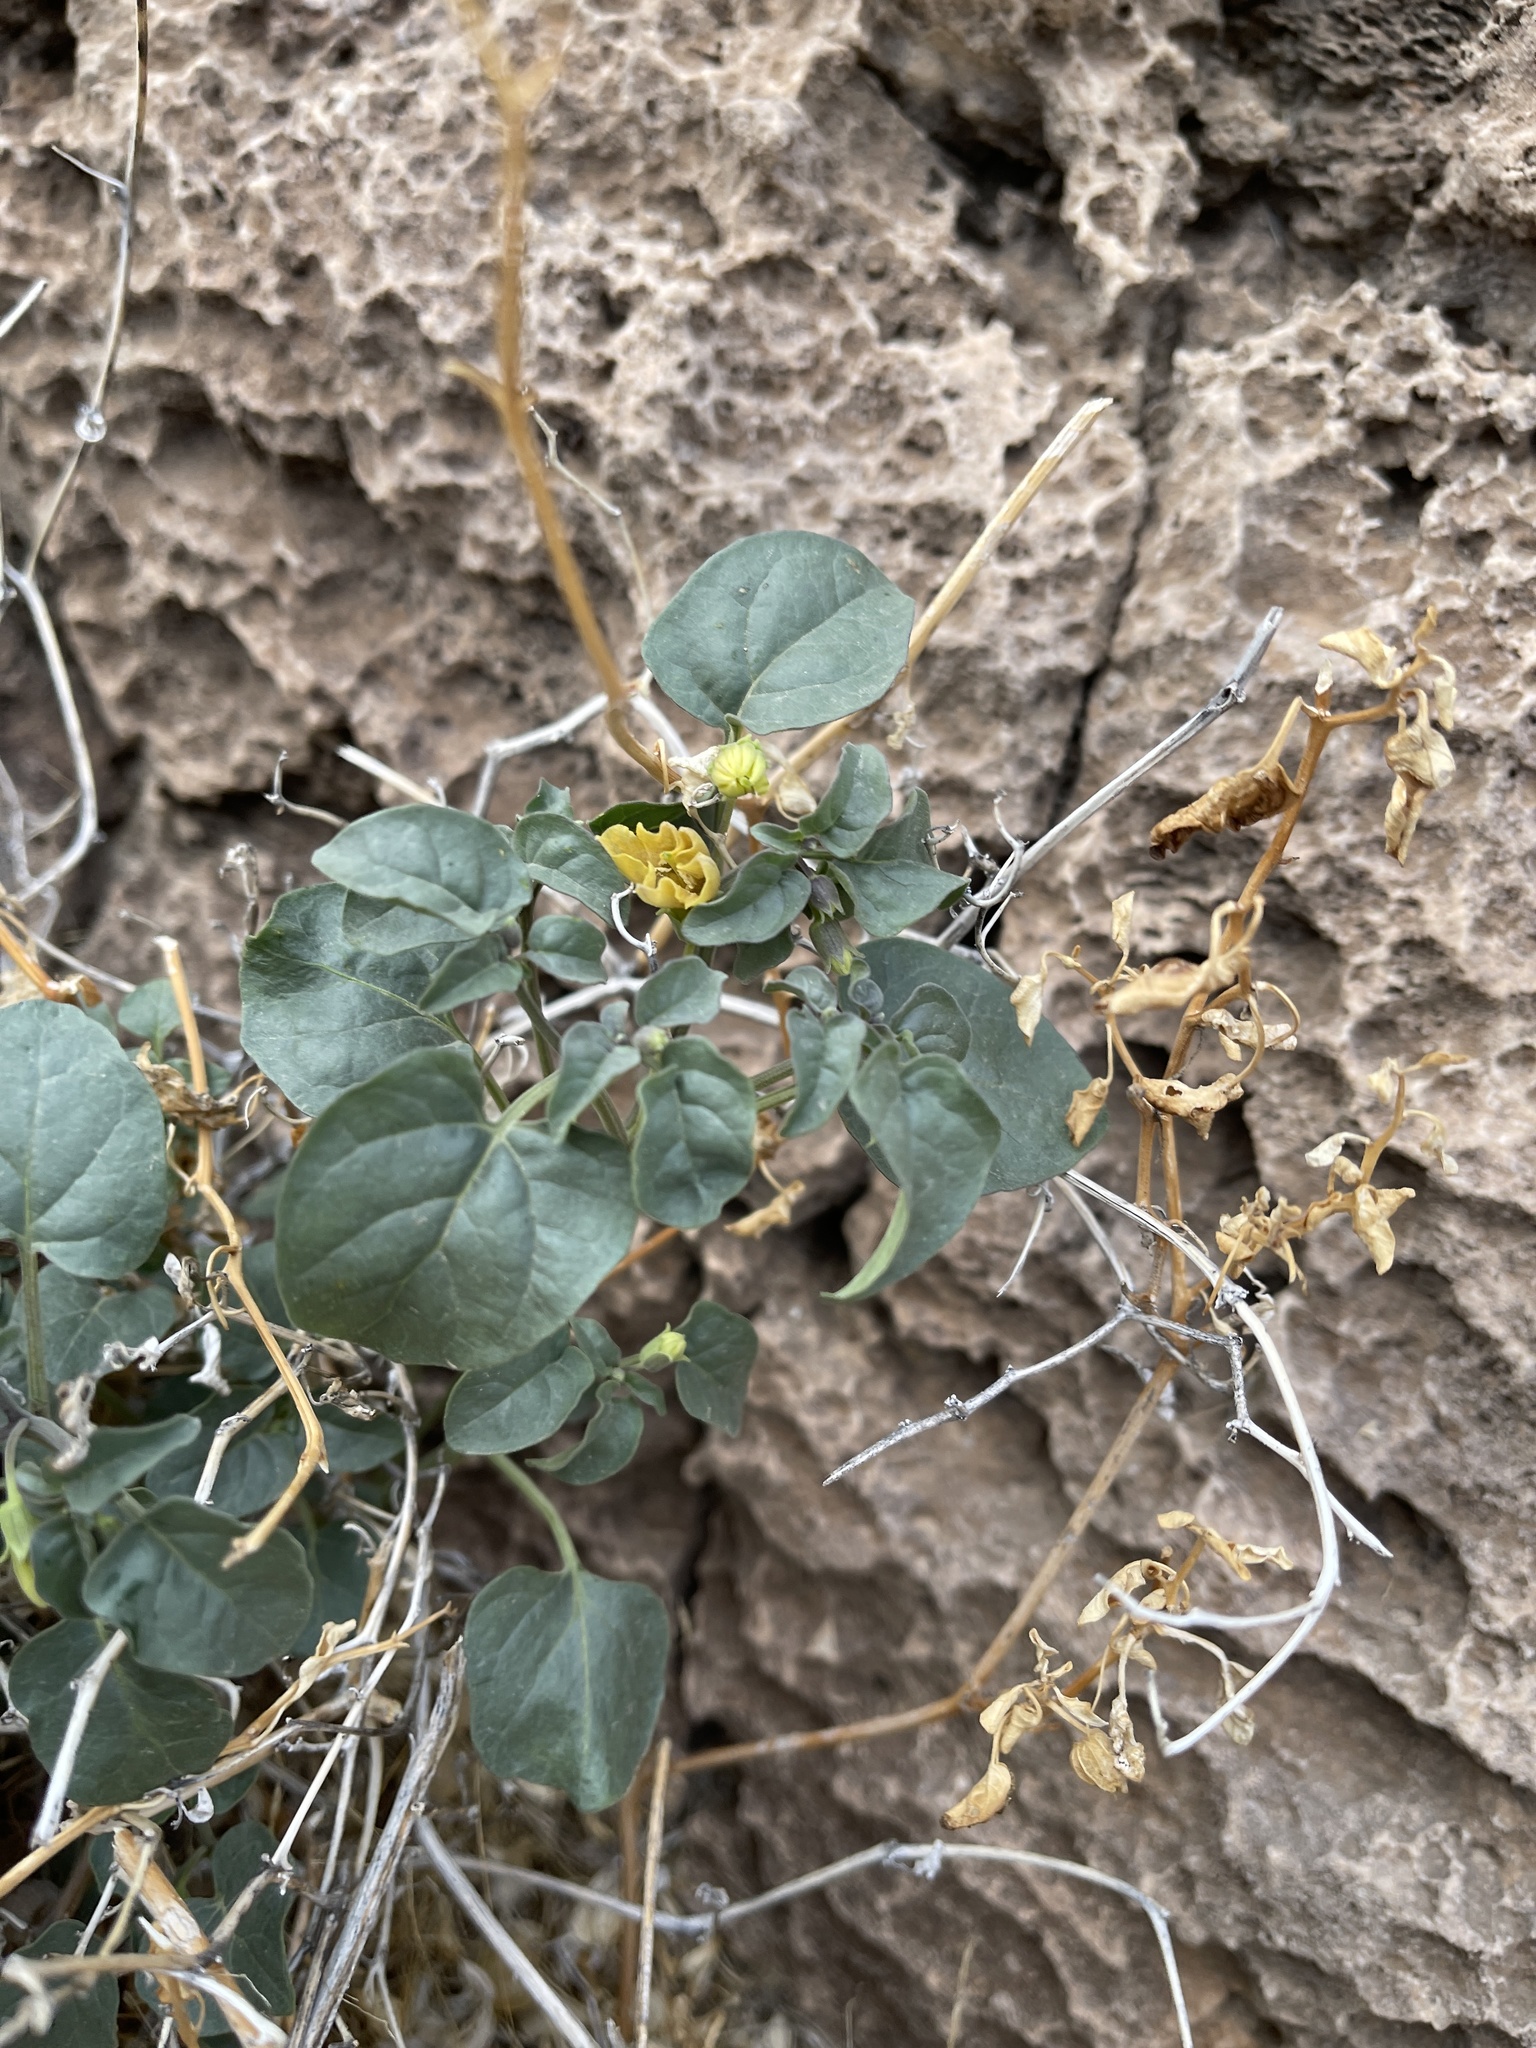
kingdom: Plantae
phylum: Tracheophyta
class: Magnoliopsida
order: Solanales
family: Solanaceae
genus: Physalis
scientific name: Physalis crassifolia
